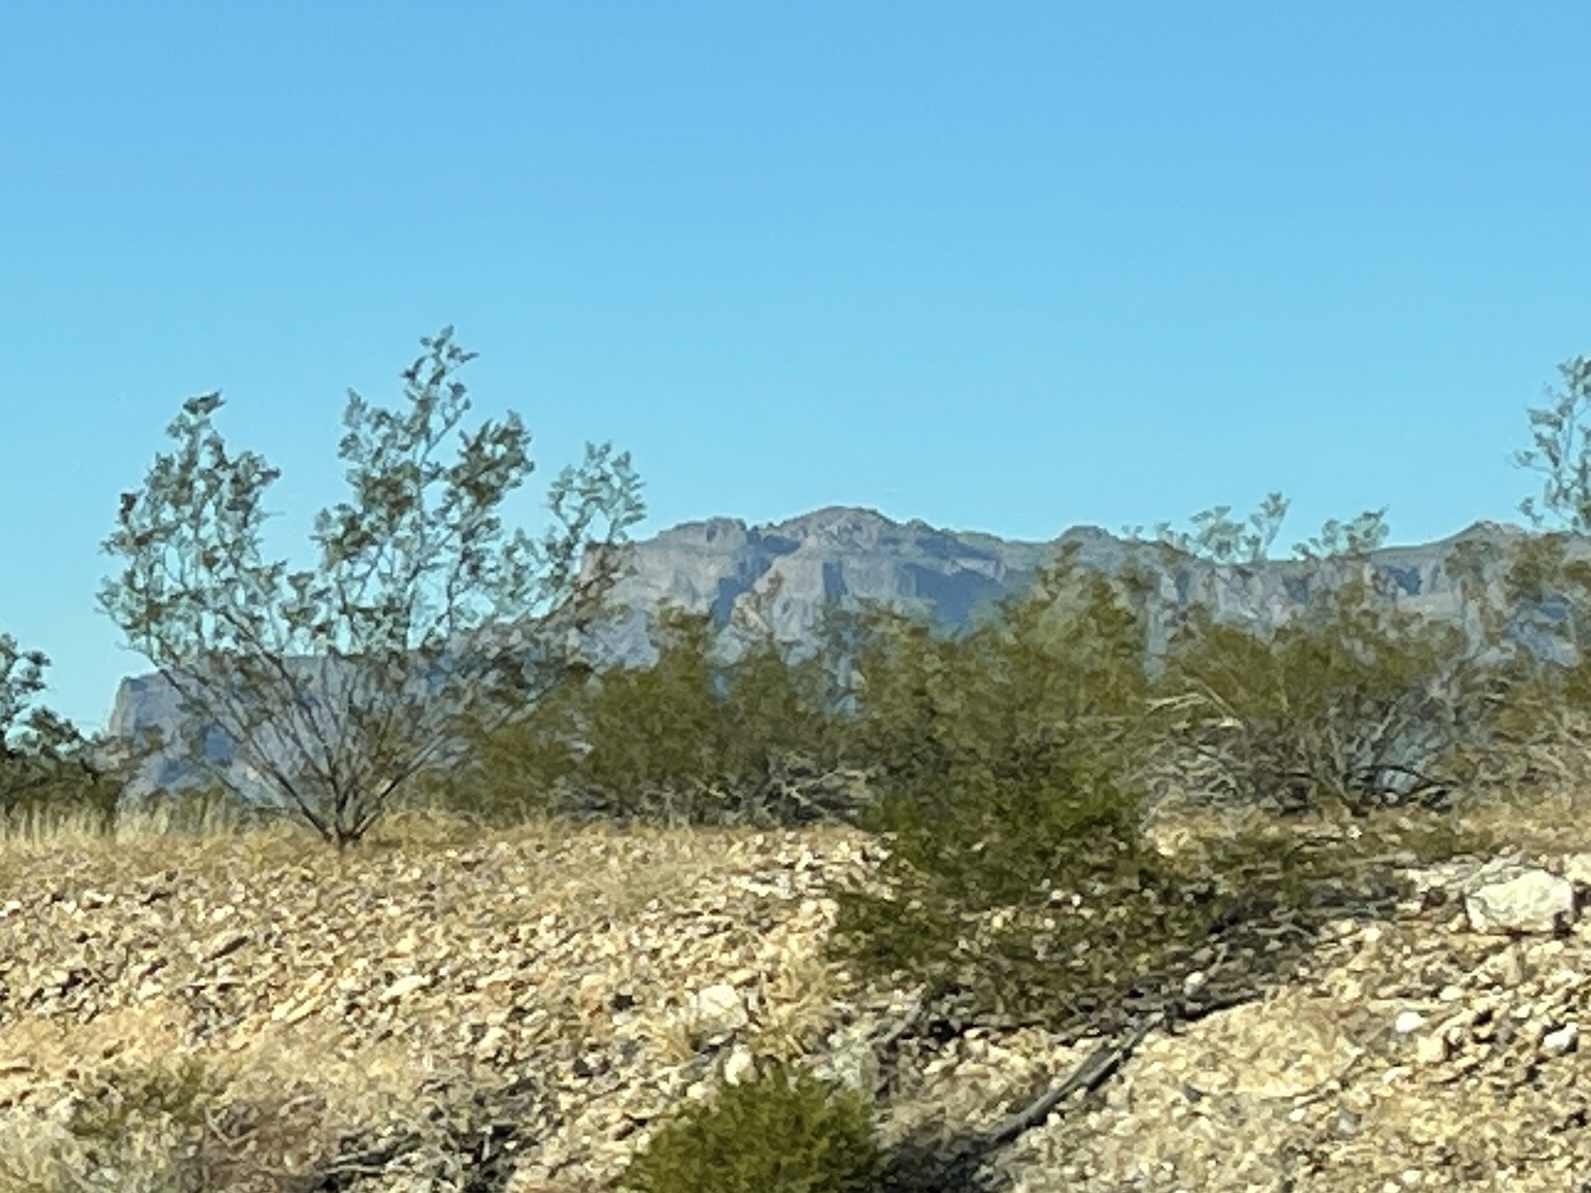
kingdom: Plantae
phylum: Tracheophyta
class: Magnoliopsida
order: Zygophyllales
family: Zygophyllaceae
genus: Larrea
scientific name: Larrea tridentata
